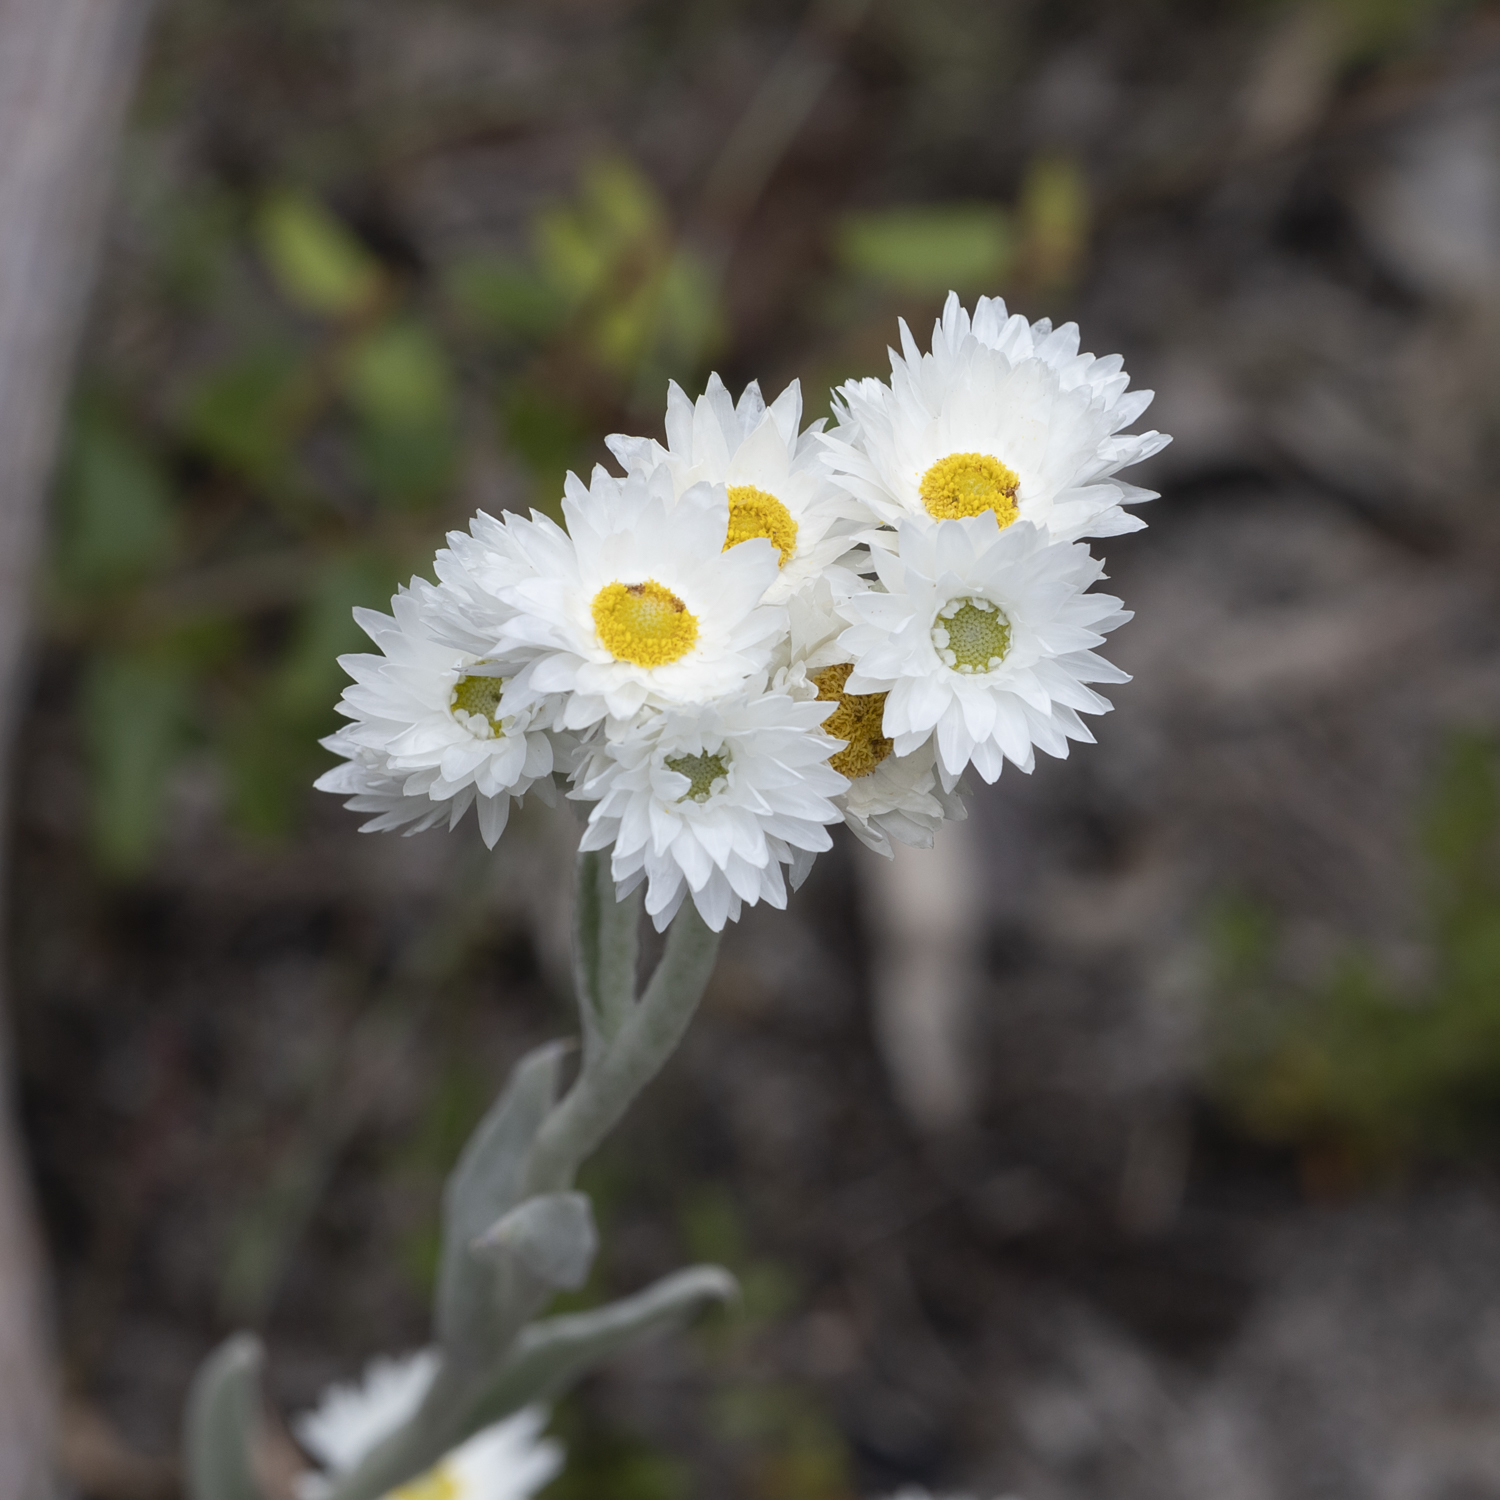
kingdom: Plantae
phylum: Tracheophyta
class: Magnoliopsida
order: Asterales
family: Asteraceae
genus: Argentipallium
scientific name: Argentipallium blandowskianum
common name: Woolly everlasting
